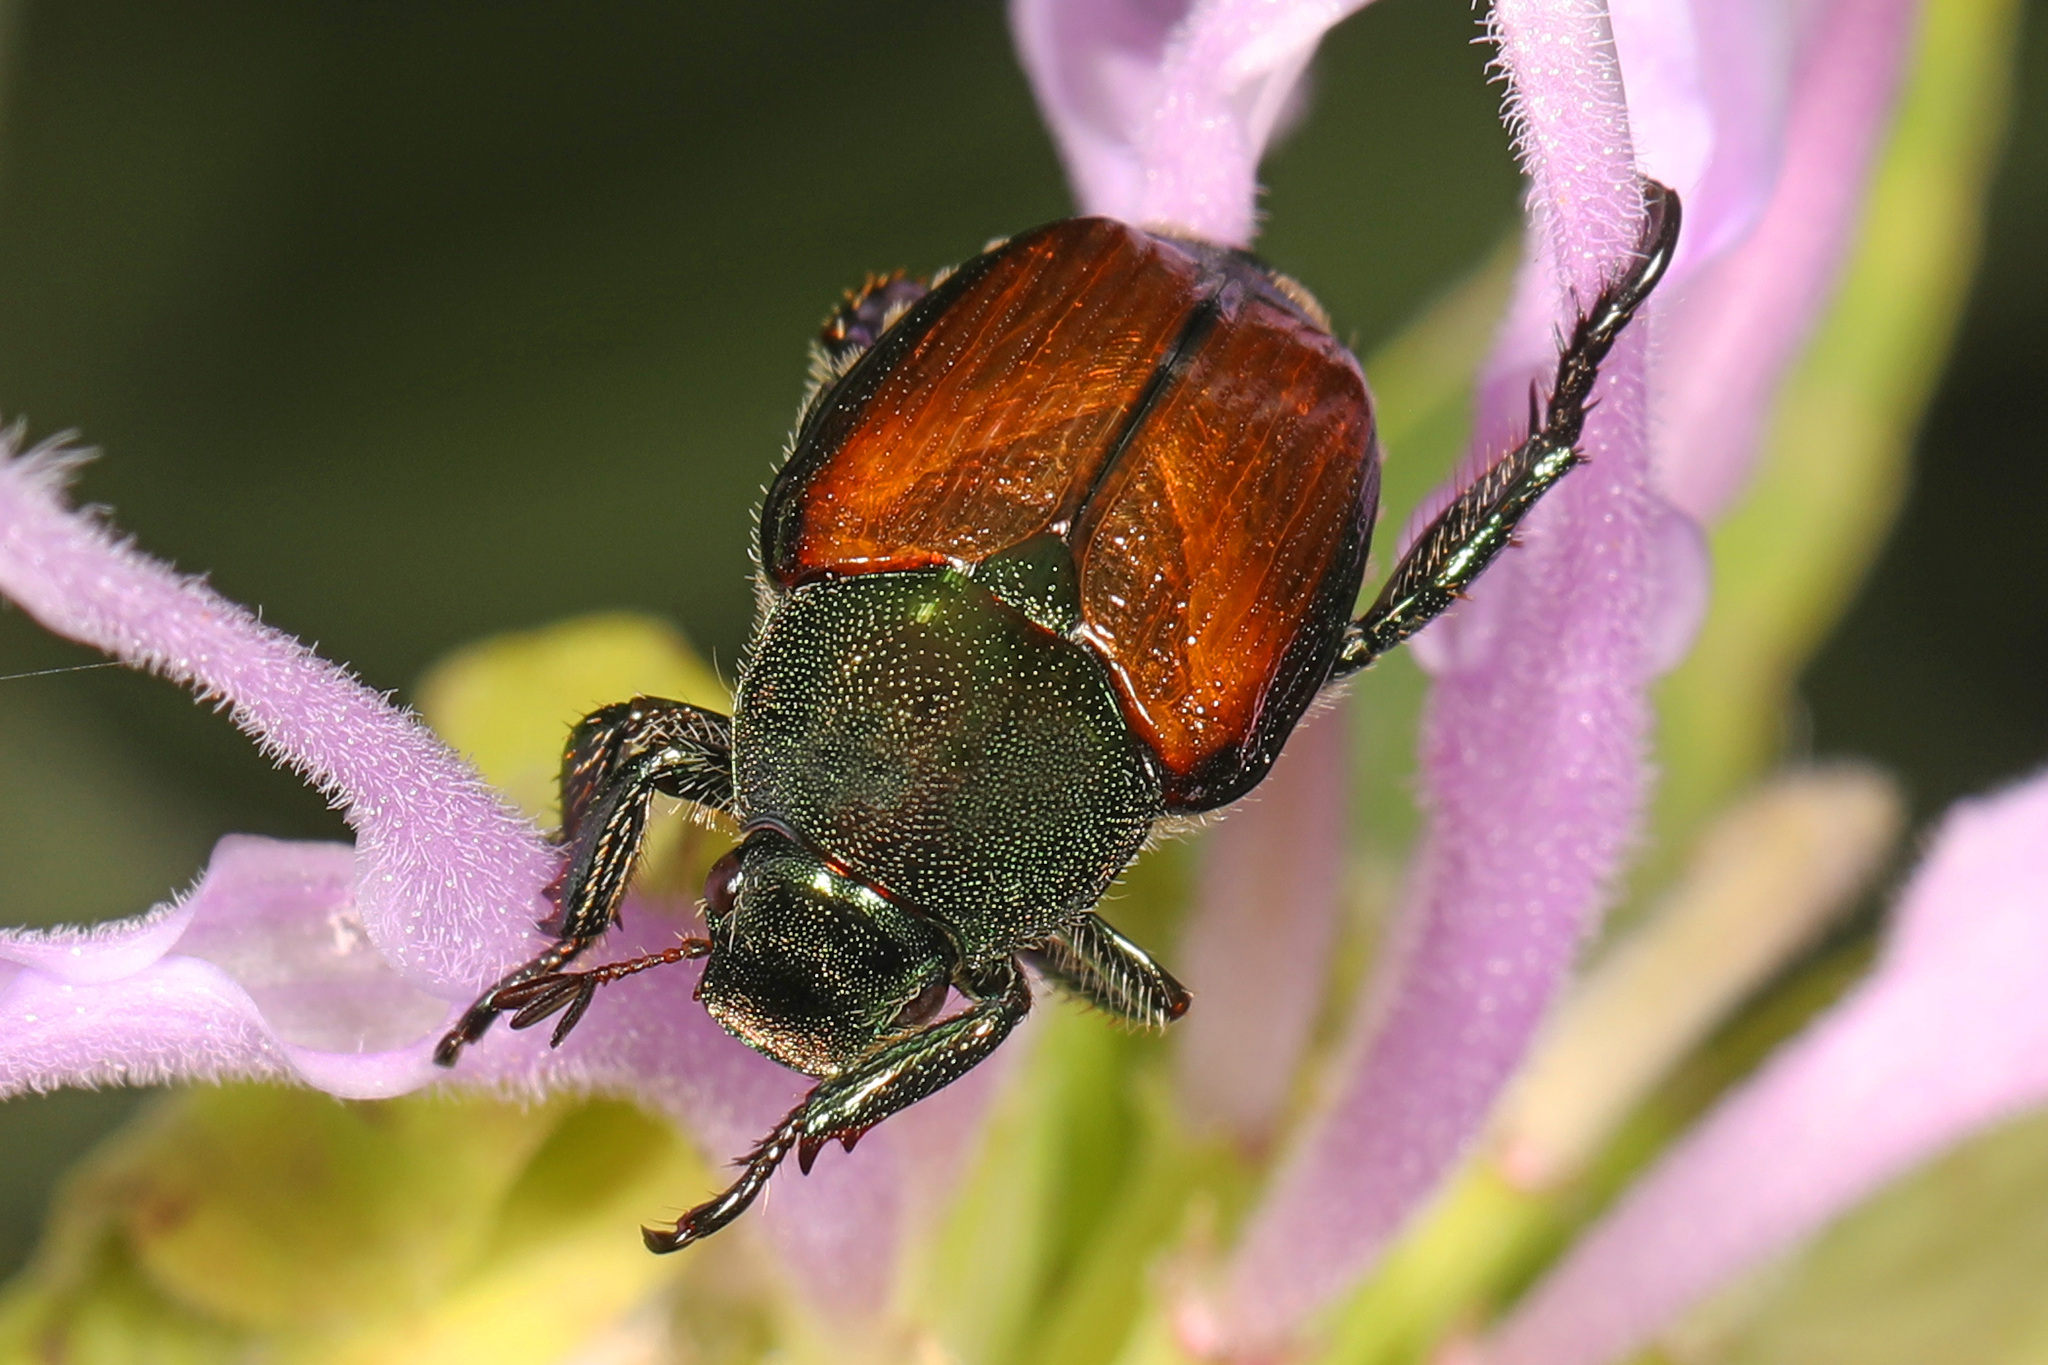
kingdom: Animalia
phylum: Arthropoda
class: Insecta
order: Coleoptera
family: Scarabaeidae
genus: Popillia
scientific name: Popillia japonica
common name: Japanese beetle
